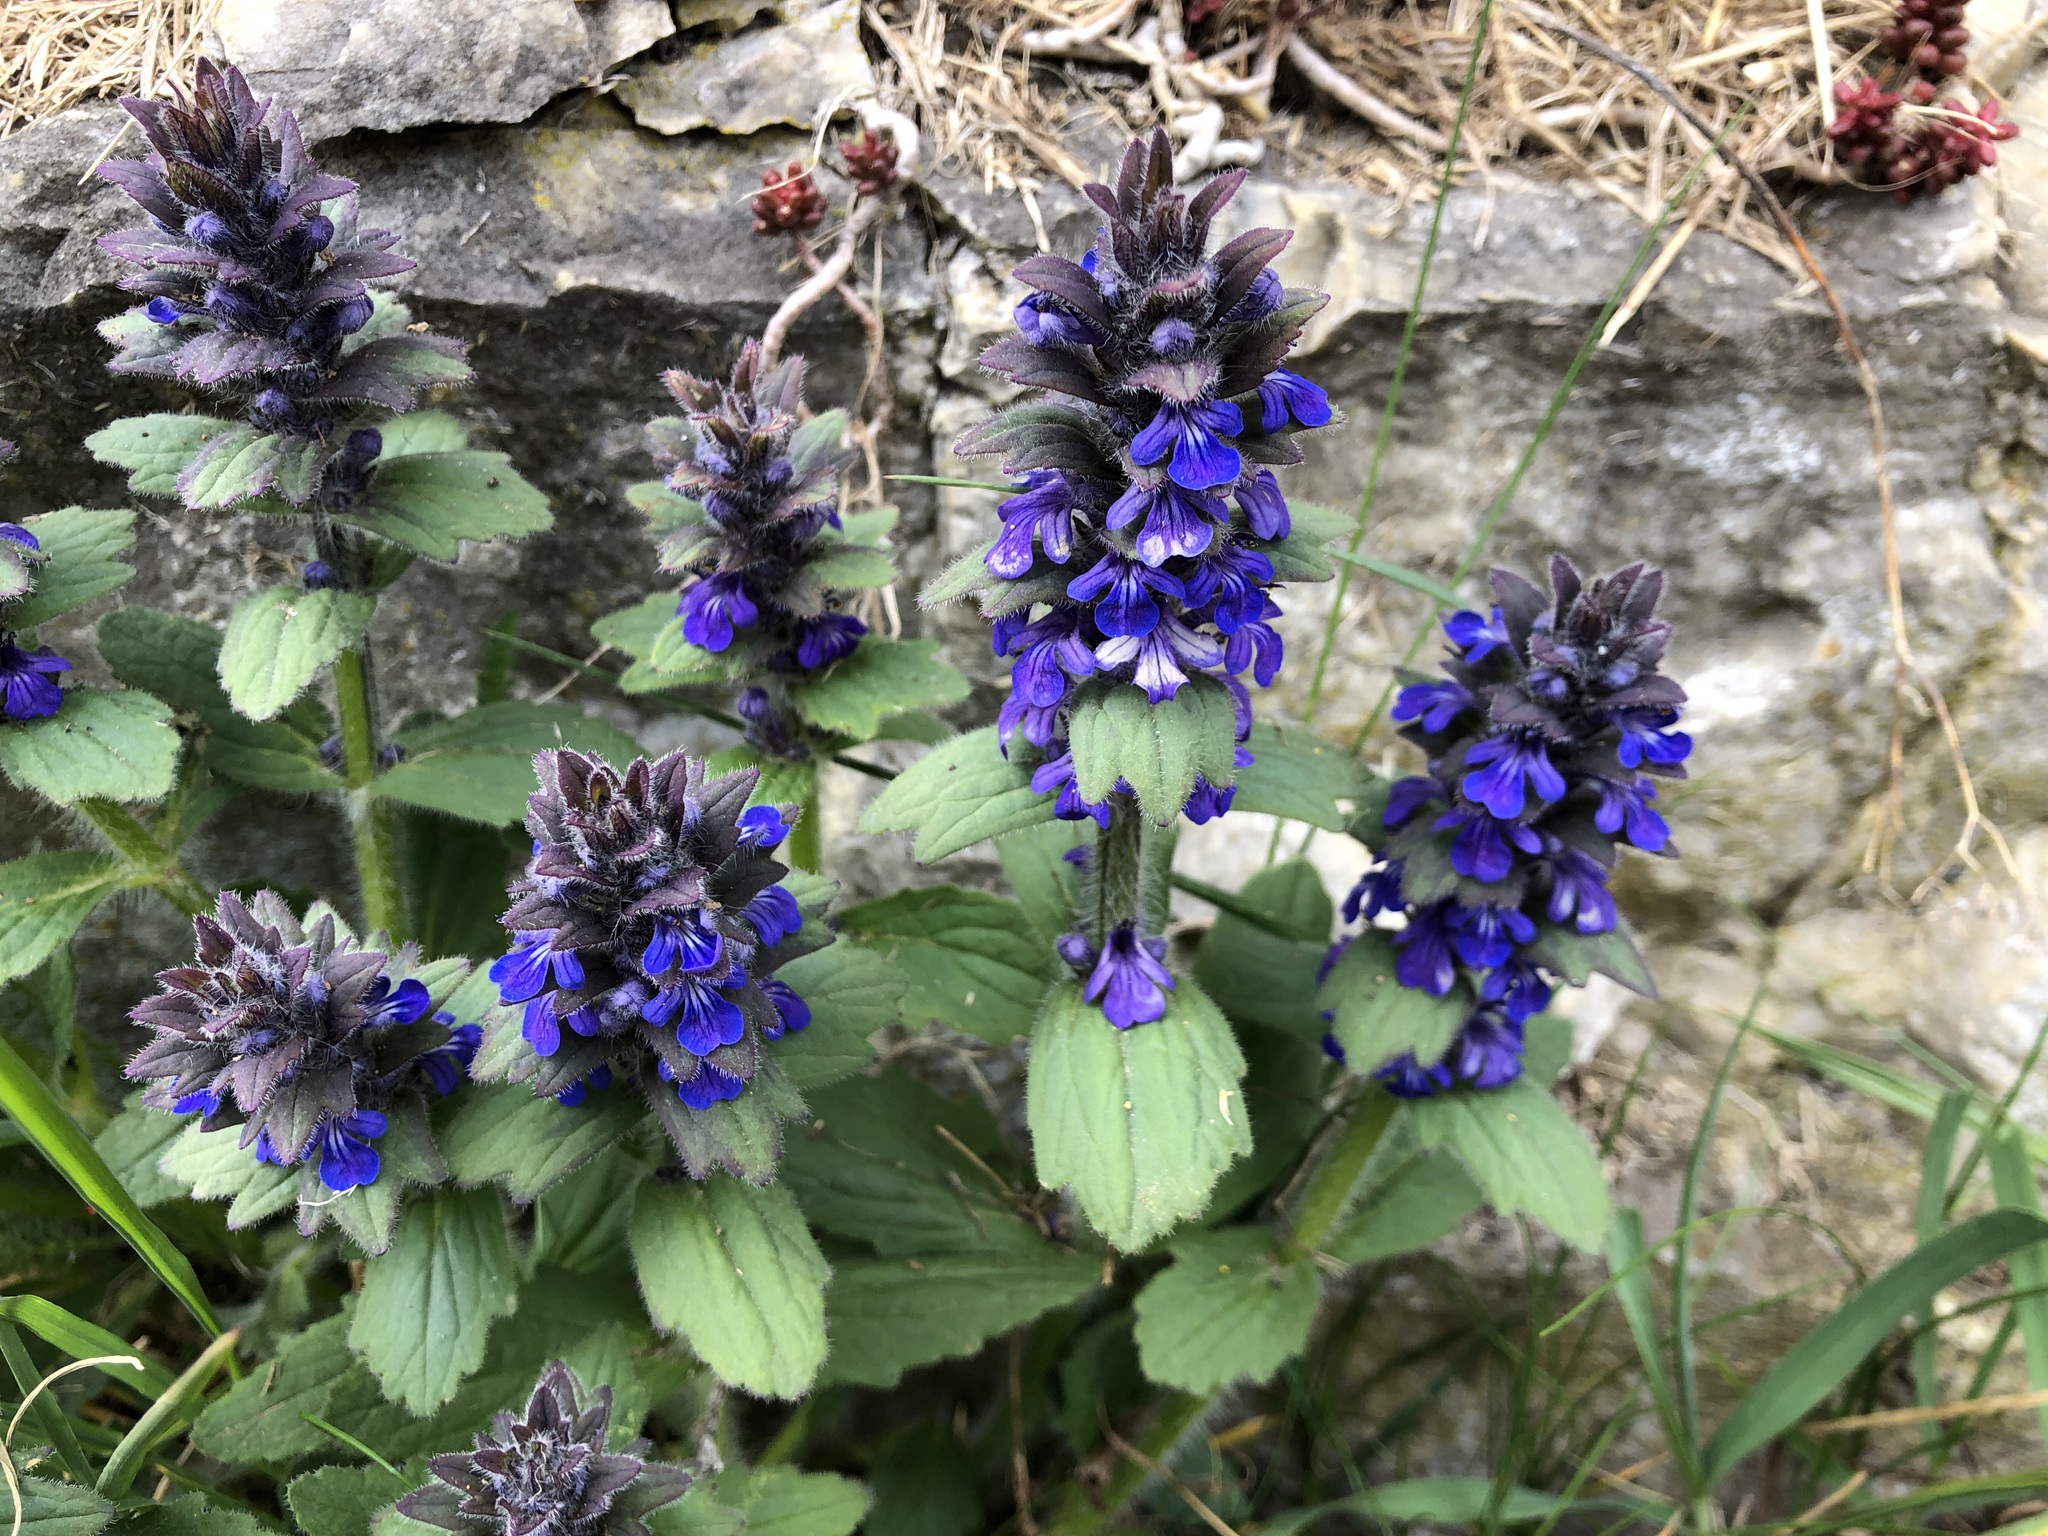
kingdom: Plantae
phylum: Tracheophyta
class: Magnoliopsida
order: Lamiales
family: Lamiaceae
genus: Ajuga
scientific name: Ajuga genevensis
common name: Blue bugle
